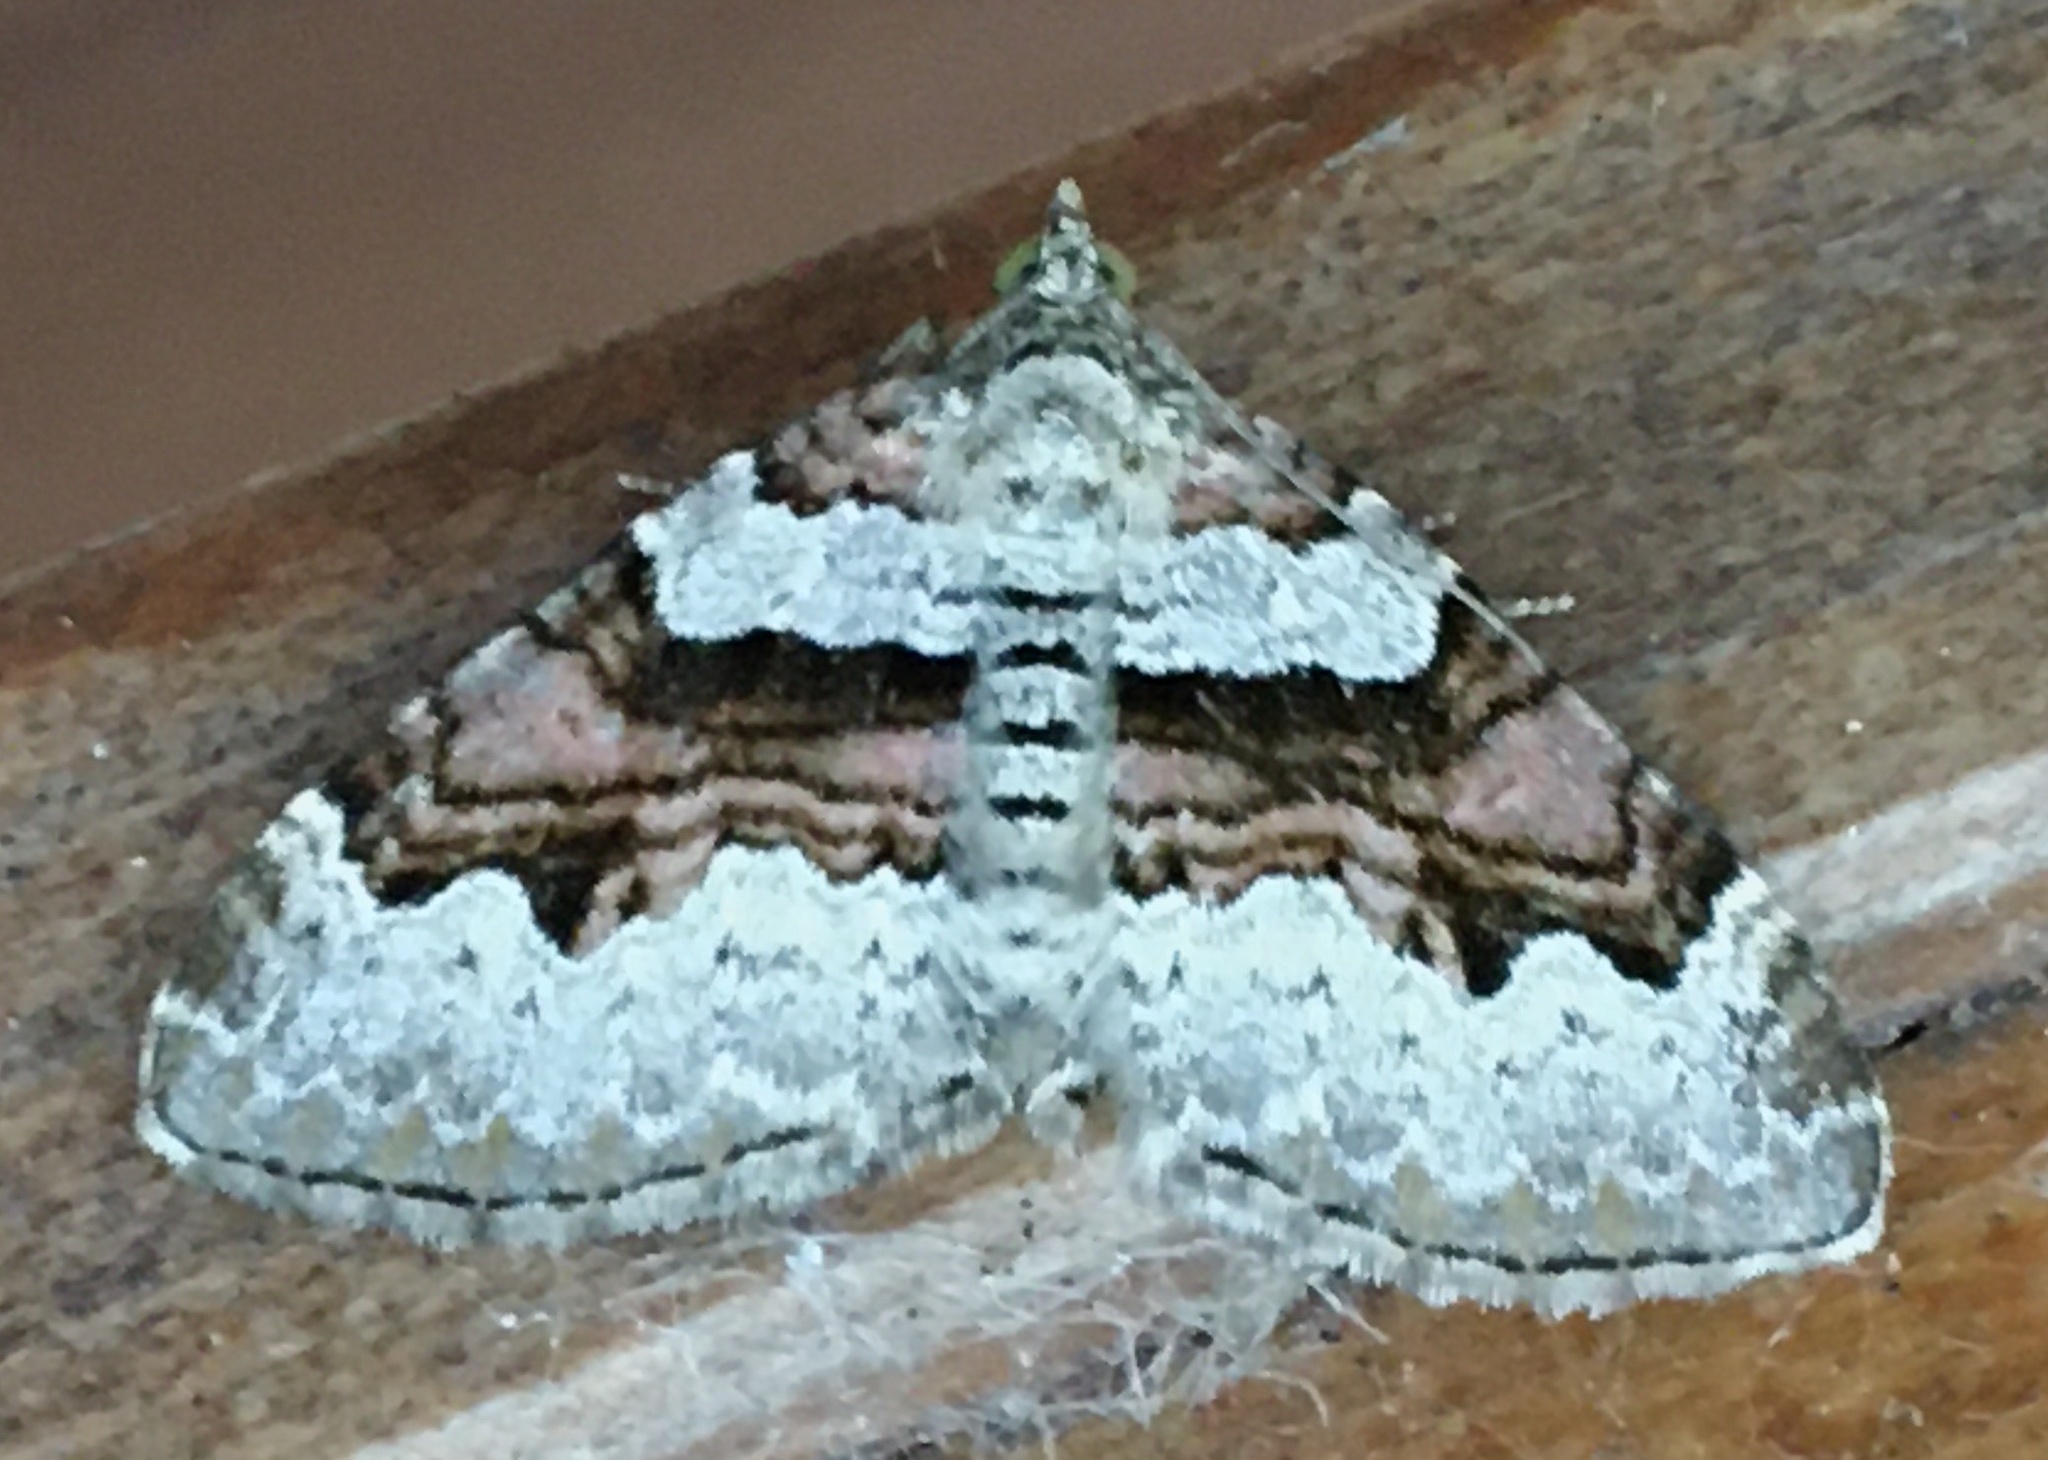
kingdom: Animalia
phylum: Arthropoda
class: Insecta
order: Lepidoptera
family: Geometridae
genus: Xanthorhoe
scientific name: Xanthorhoe designata
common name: Flame carpet
